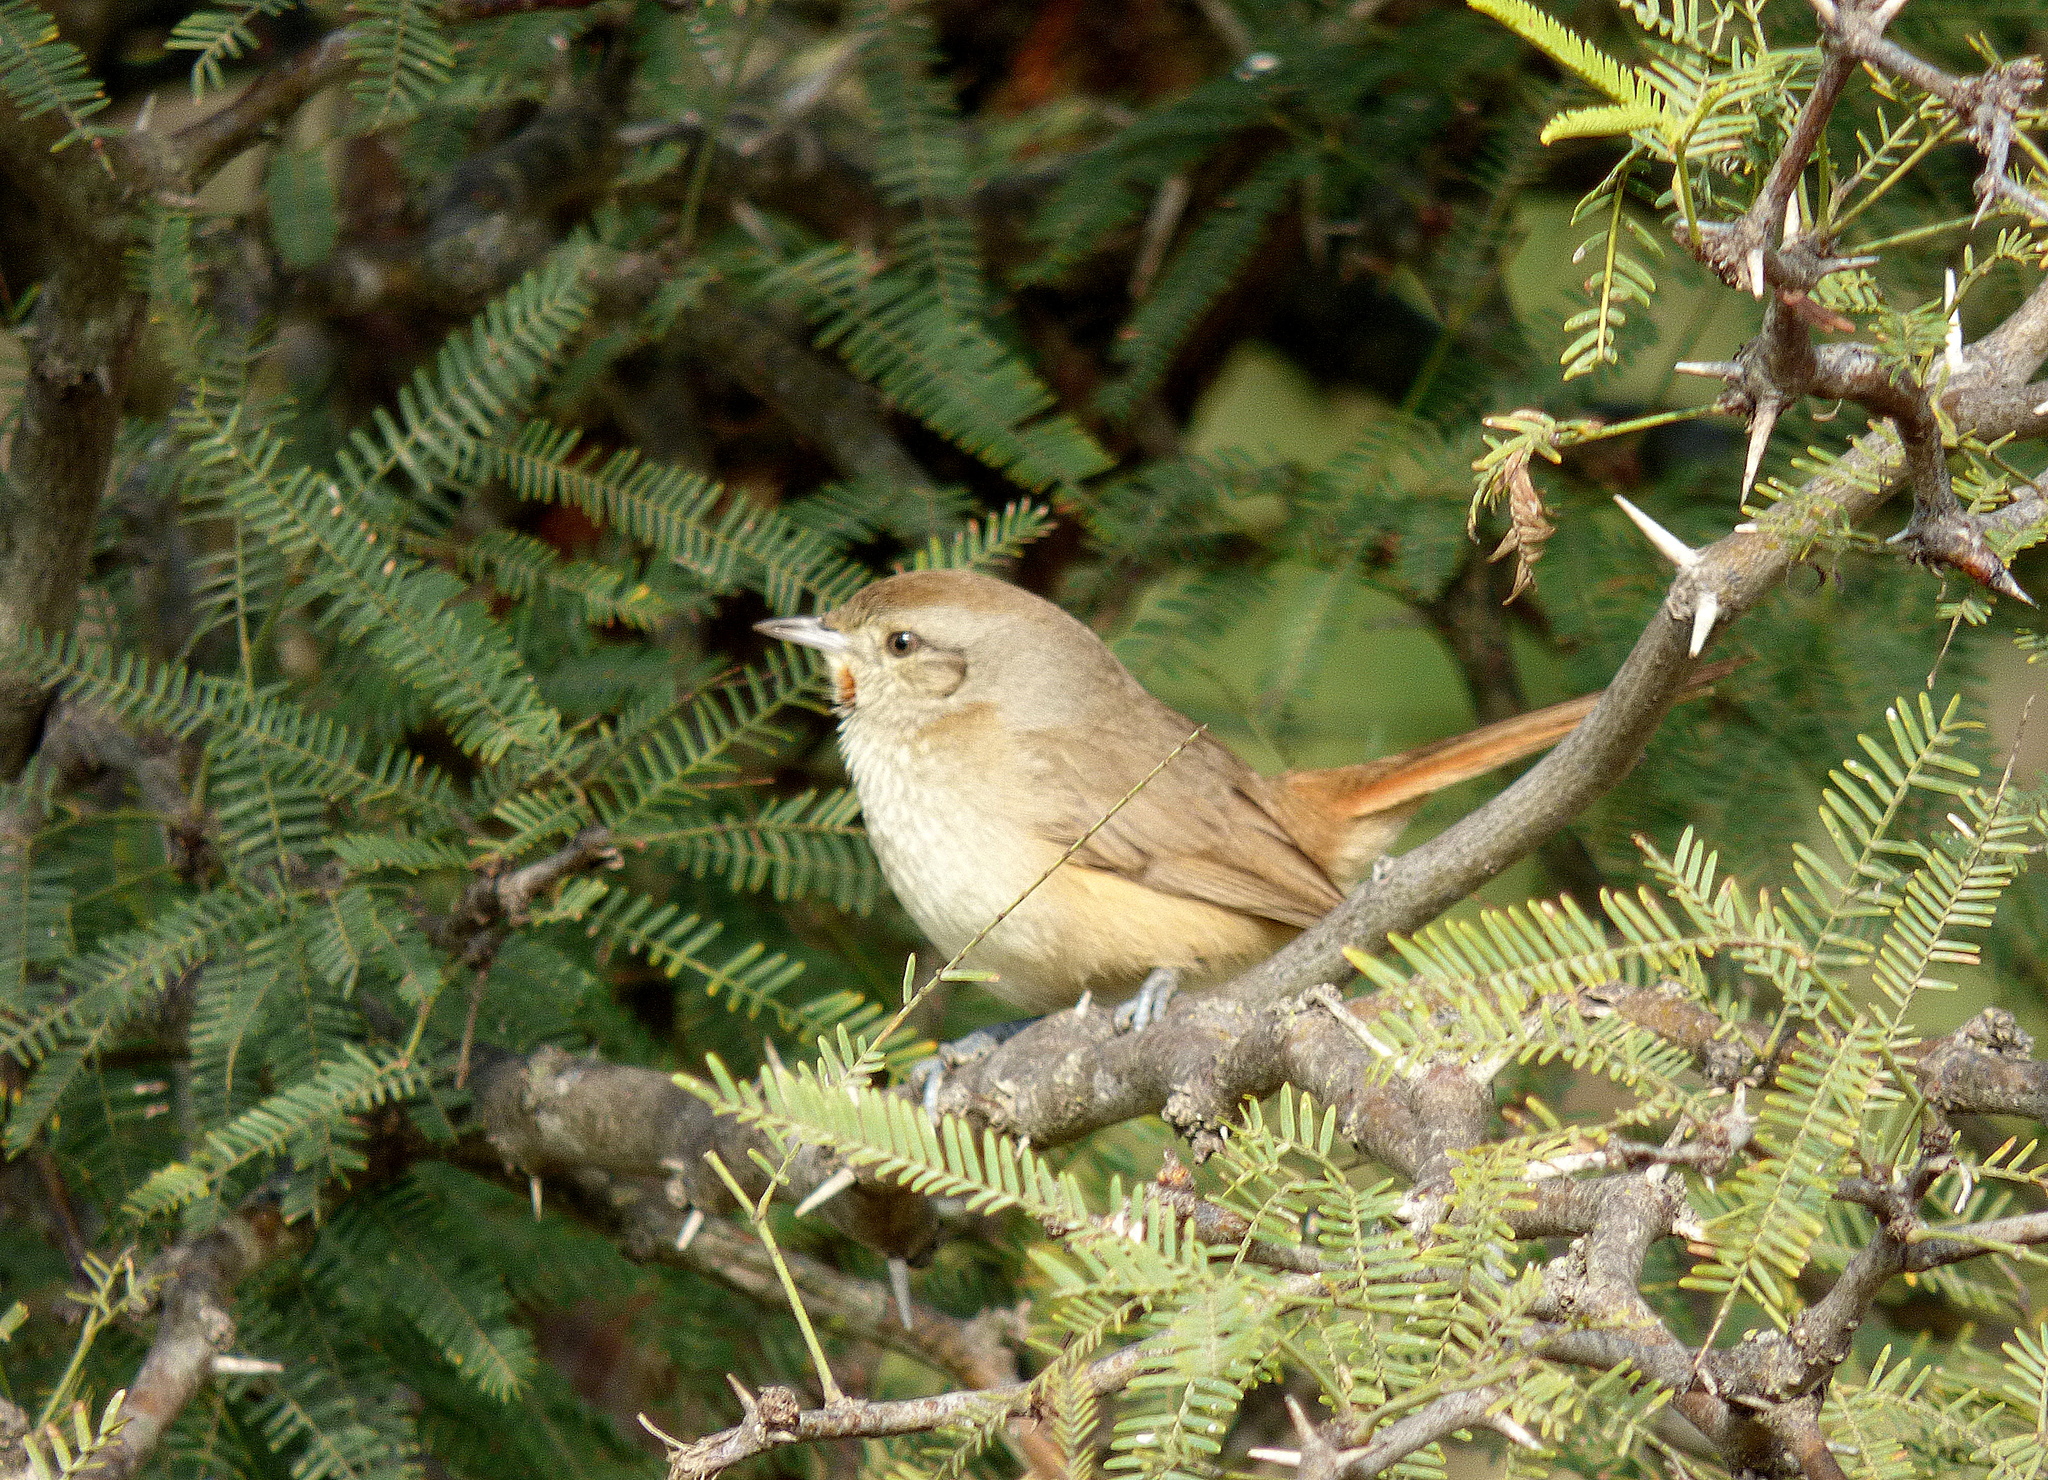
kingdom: Animalia
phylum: Chordata
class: Aves
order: Passeriformes
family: Furnariidae
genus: Asthenes
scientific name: Asthenes baeri
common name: Short-billed canastero
